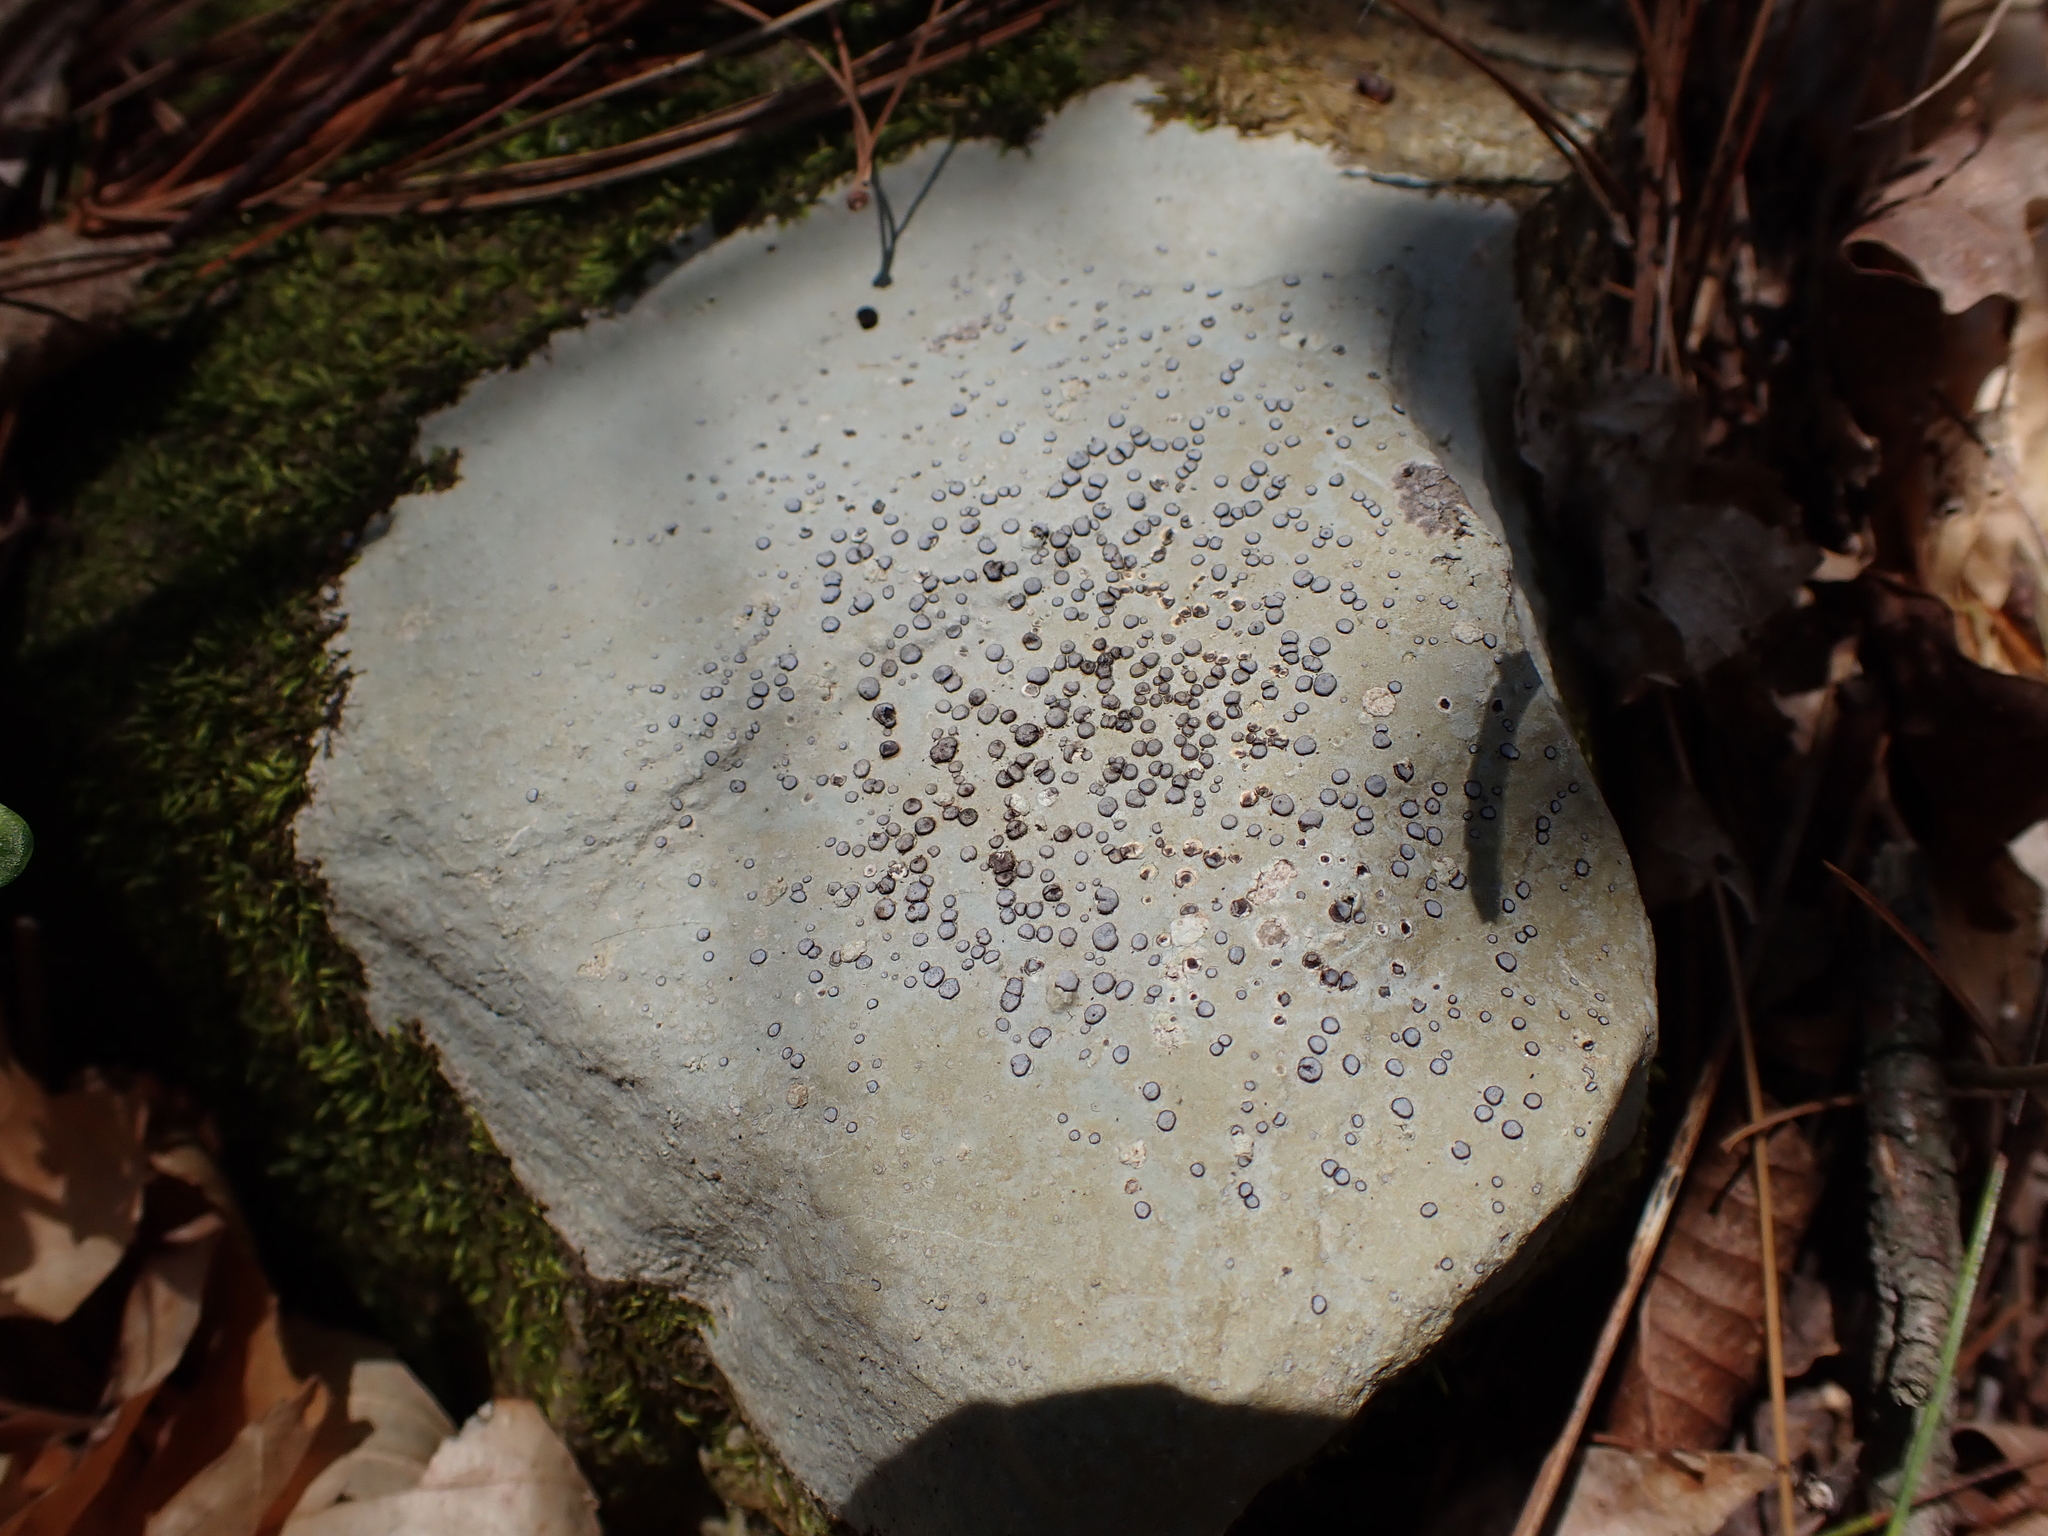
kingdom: Fungi
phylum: Ascomycota
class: Lecanoromycetes
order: Lecideales
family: Lecideaceae
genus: Porpidia
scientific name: Porpidia albocaerulescens
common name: Smokey-eyed boulder lichen
